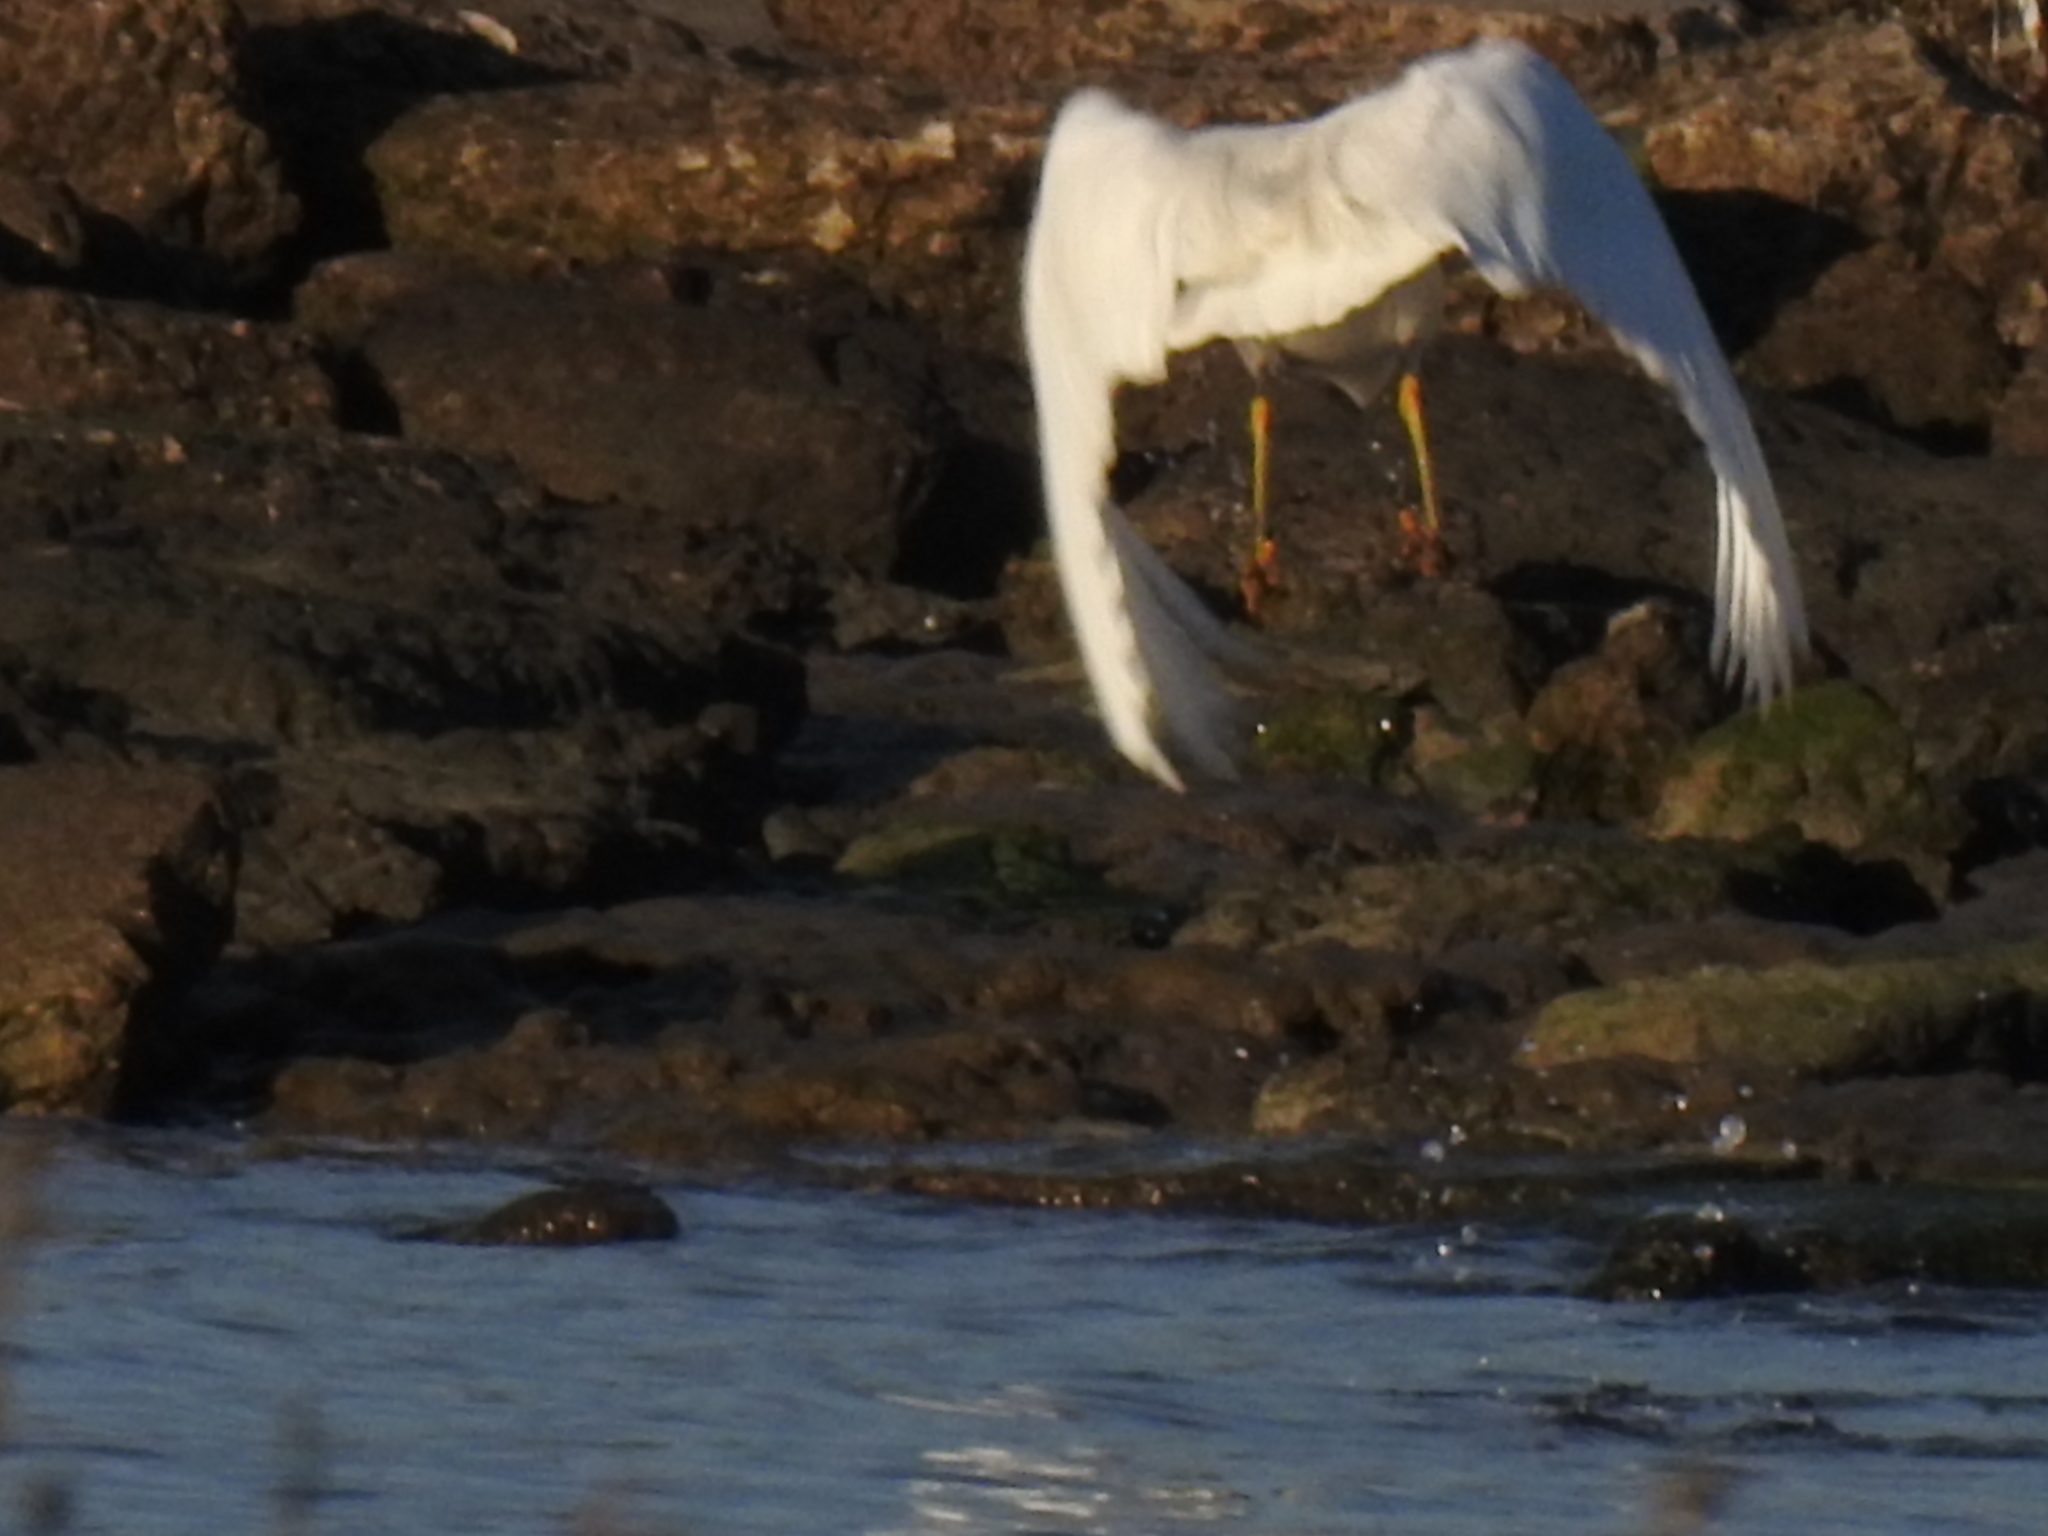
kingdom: Animalia
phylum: Chordata
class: Aves
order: Pelecaniformes
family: Ardeidae
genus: Egretta
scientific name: Egretta thula
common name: Snowy egret
